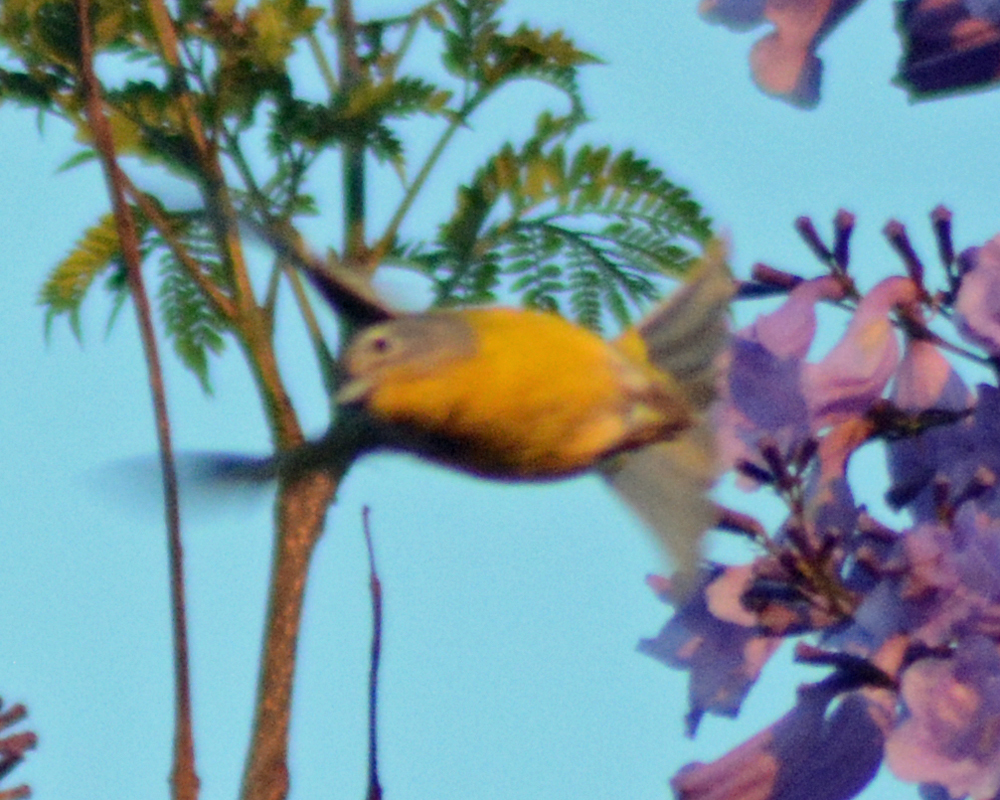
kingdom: Animalia
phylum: Chordata
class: Aves
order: Passeriformes
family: Parulidae
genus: Leiothlypis
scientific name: Leiothlypis ruficapilla
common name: Nashville warbler
